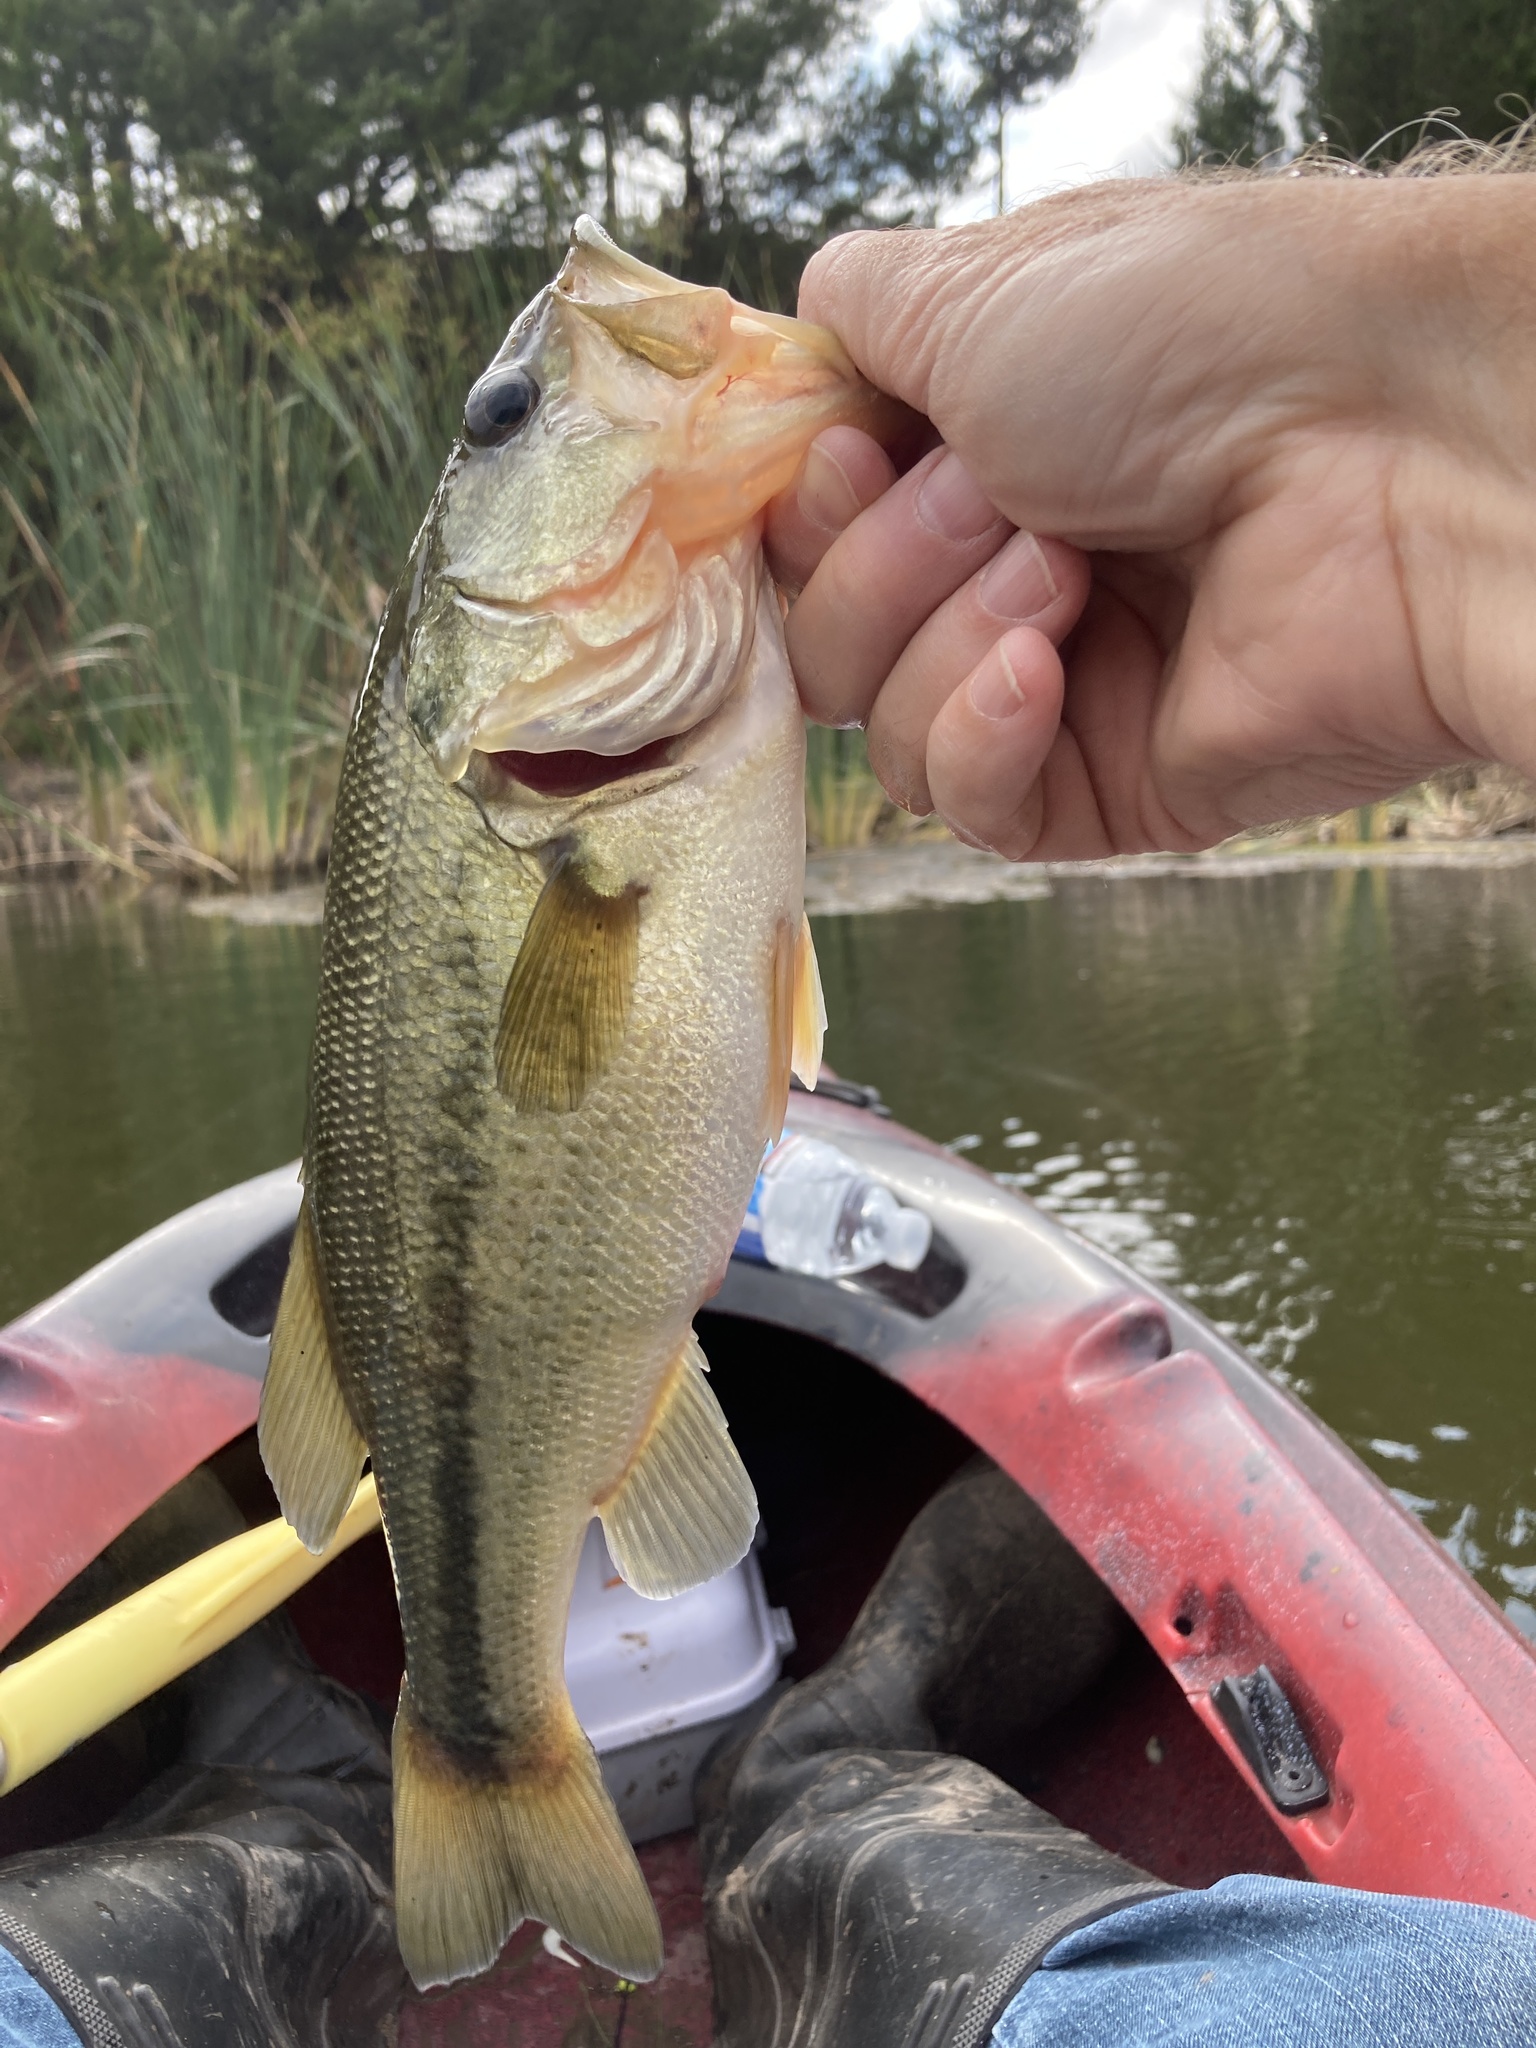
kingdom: Animalia
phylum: Chordata
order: Perciformes
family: Centrarchidae
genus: Micropterus
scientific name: Micropterus
